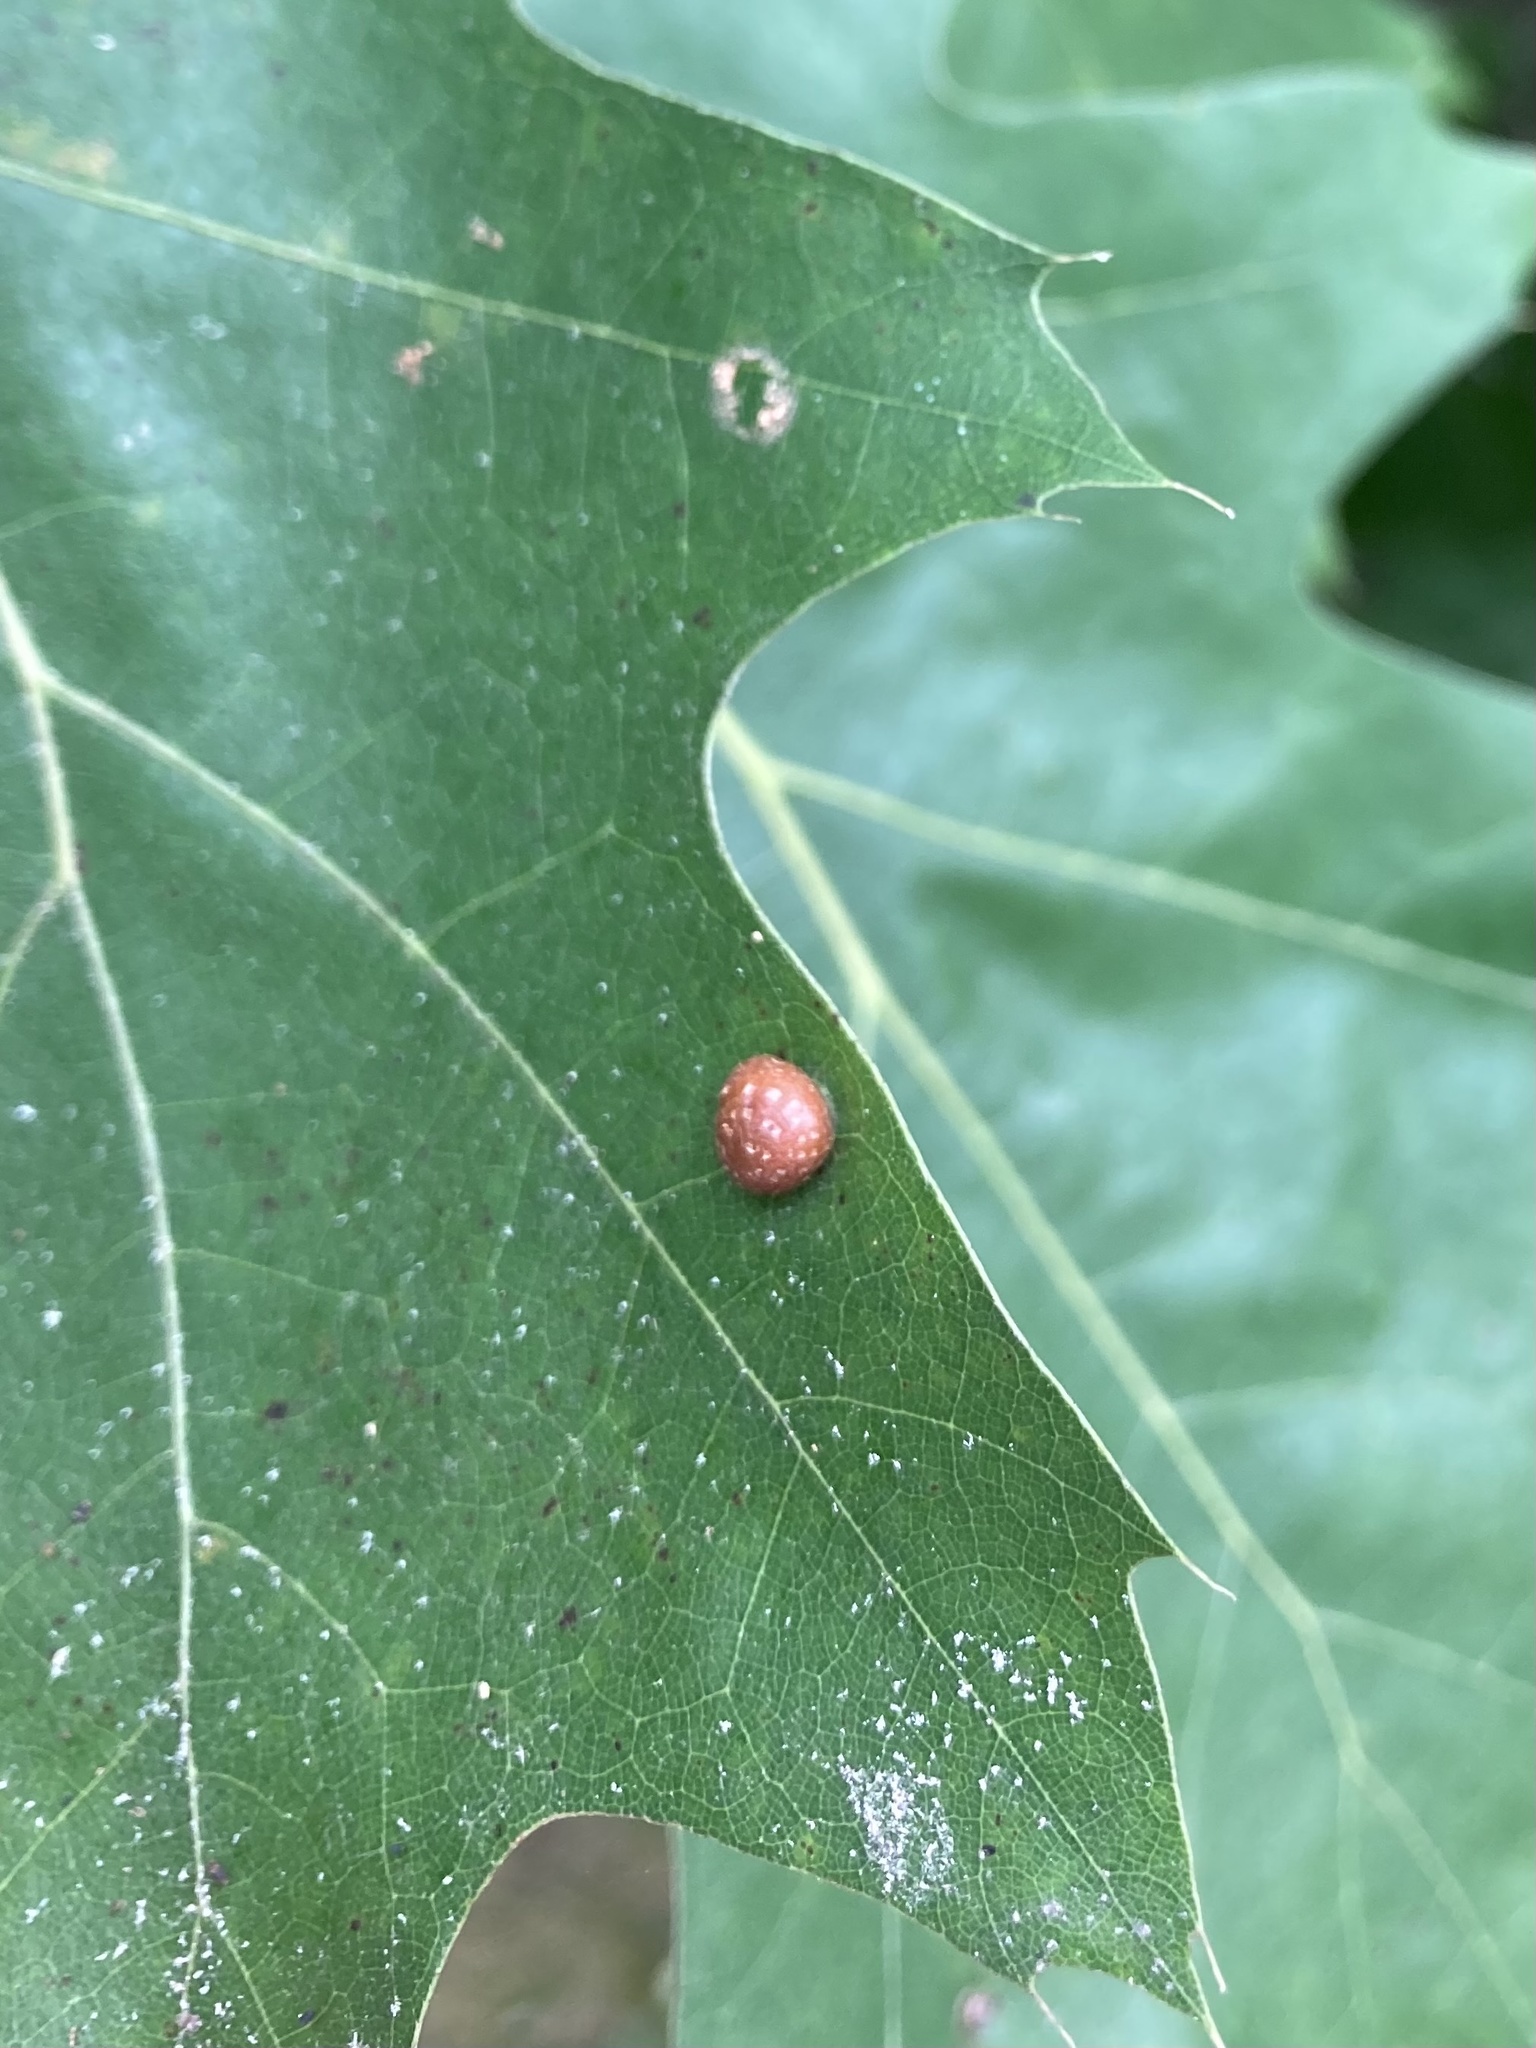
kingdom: Animalia
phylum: Arthropoda
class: Insecta
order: Diptera
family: Cecidomyiidae
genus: Polystepha
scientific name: Polystepha pilulae
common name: Oak leaf gall midge
